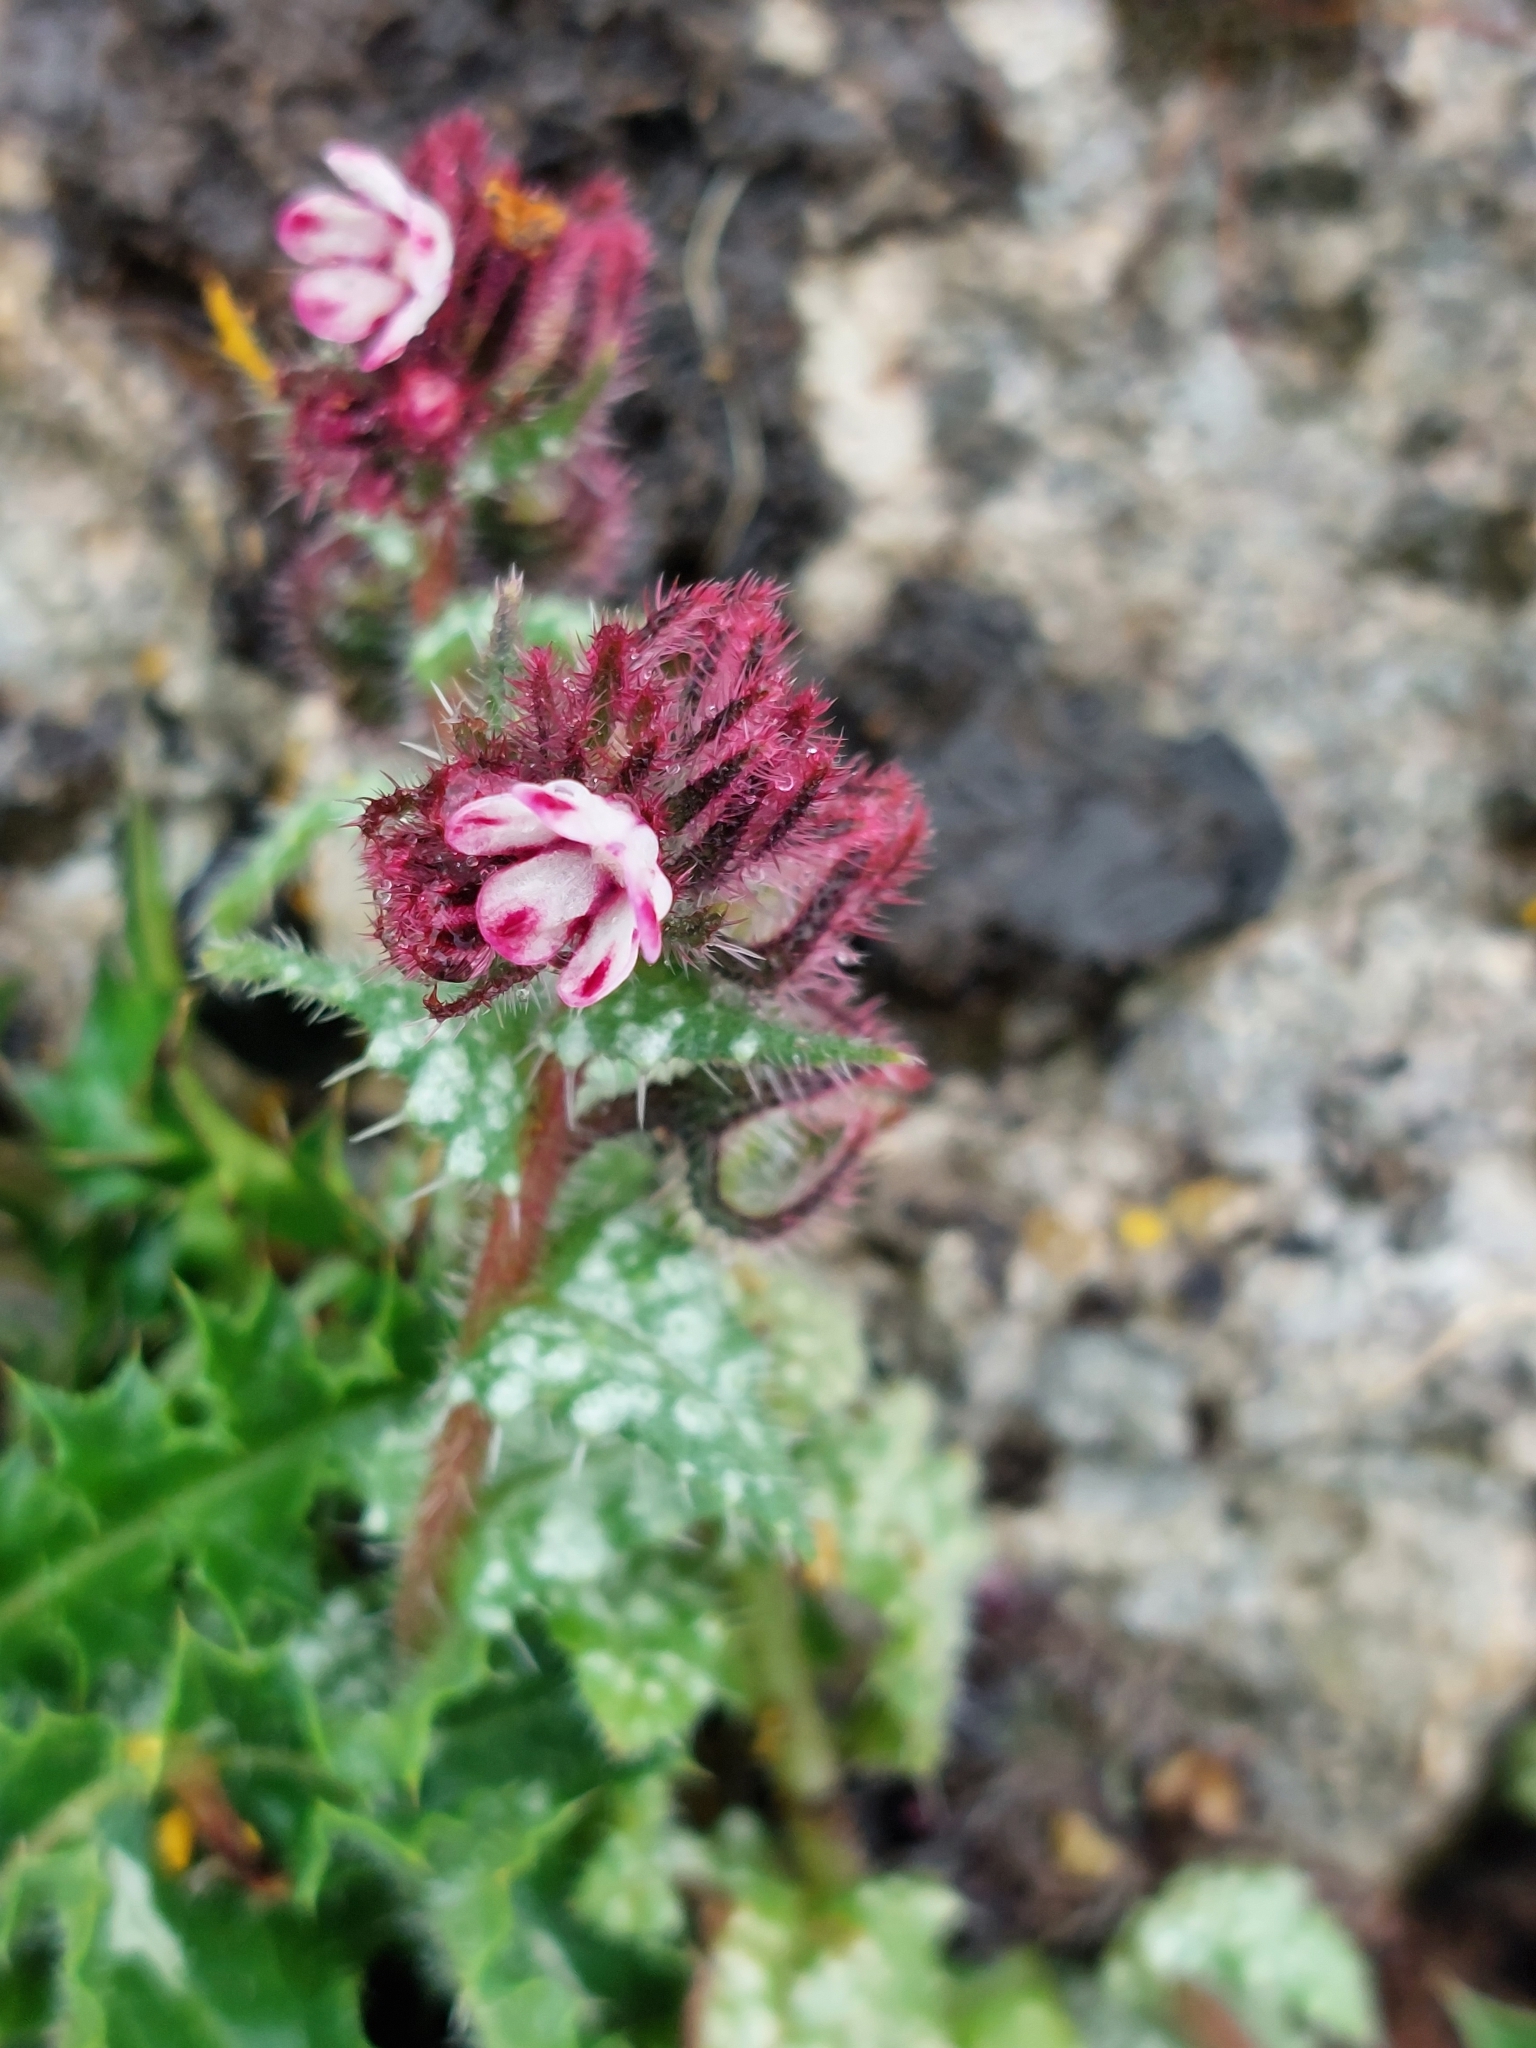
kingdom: Plantae
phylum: Tracheophyta
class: Magnoliopsida
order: Boraginales
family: Boraginaceae
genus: Anchusella
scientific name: Anchusella variegata
